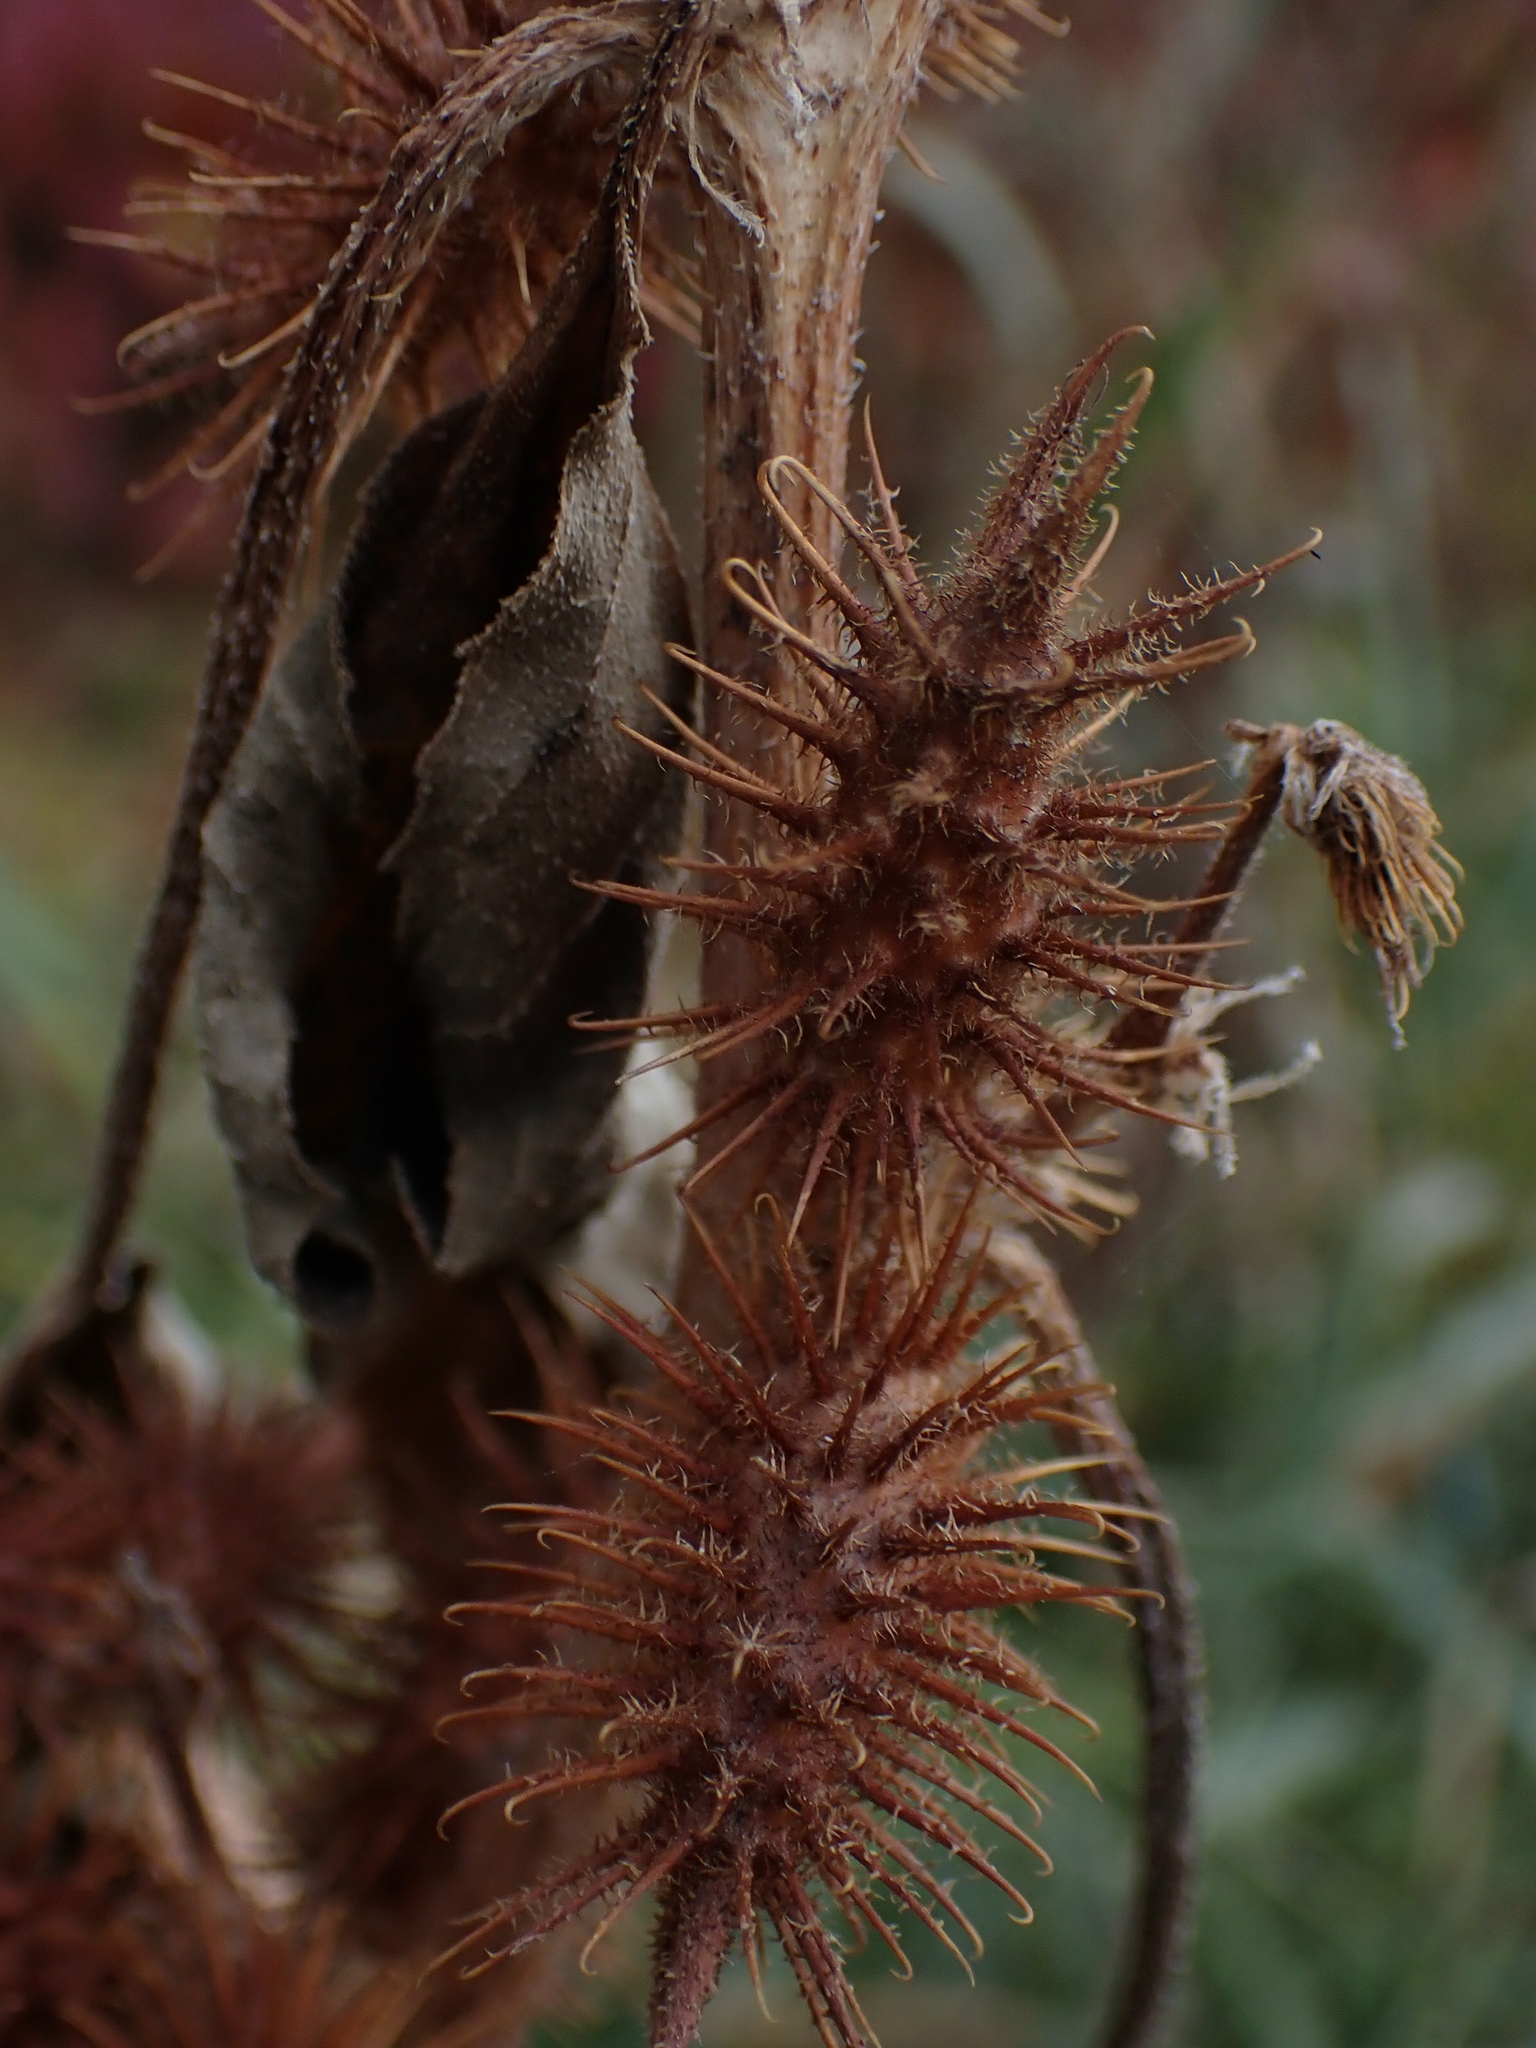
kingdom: Plantae
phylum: Tracheophyta
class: Magnoliopsida
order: Asterales
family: Asteraceae
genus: Xanthium
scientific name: Xanthium strumarium
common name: Rough cocklebur
